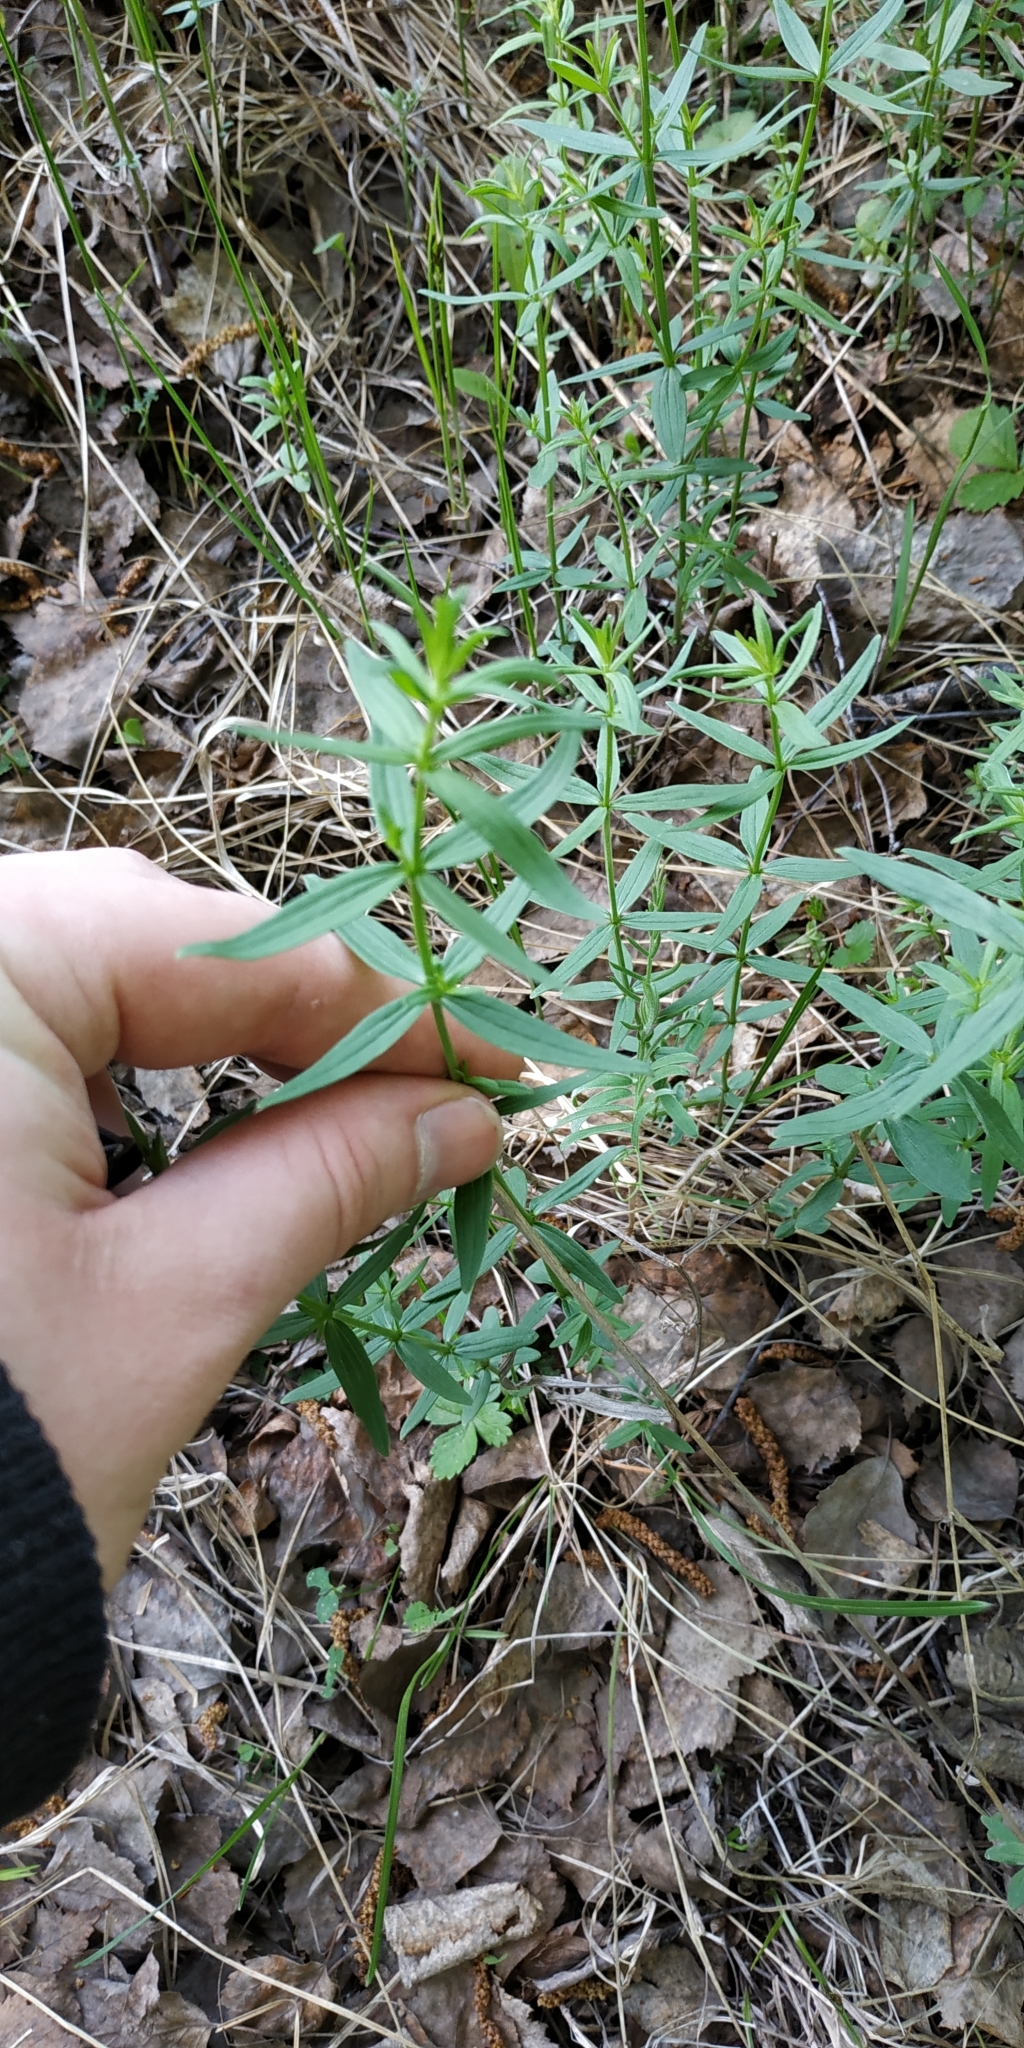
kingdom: Plantae
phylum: Tracheophyta
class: Magnoliopsida
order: Gentianales
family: Rubiaceae
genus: Galium
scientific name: Galium boreale
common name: Northern bedstraw
